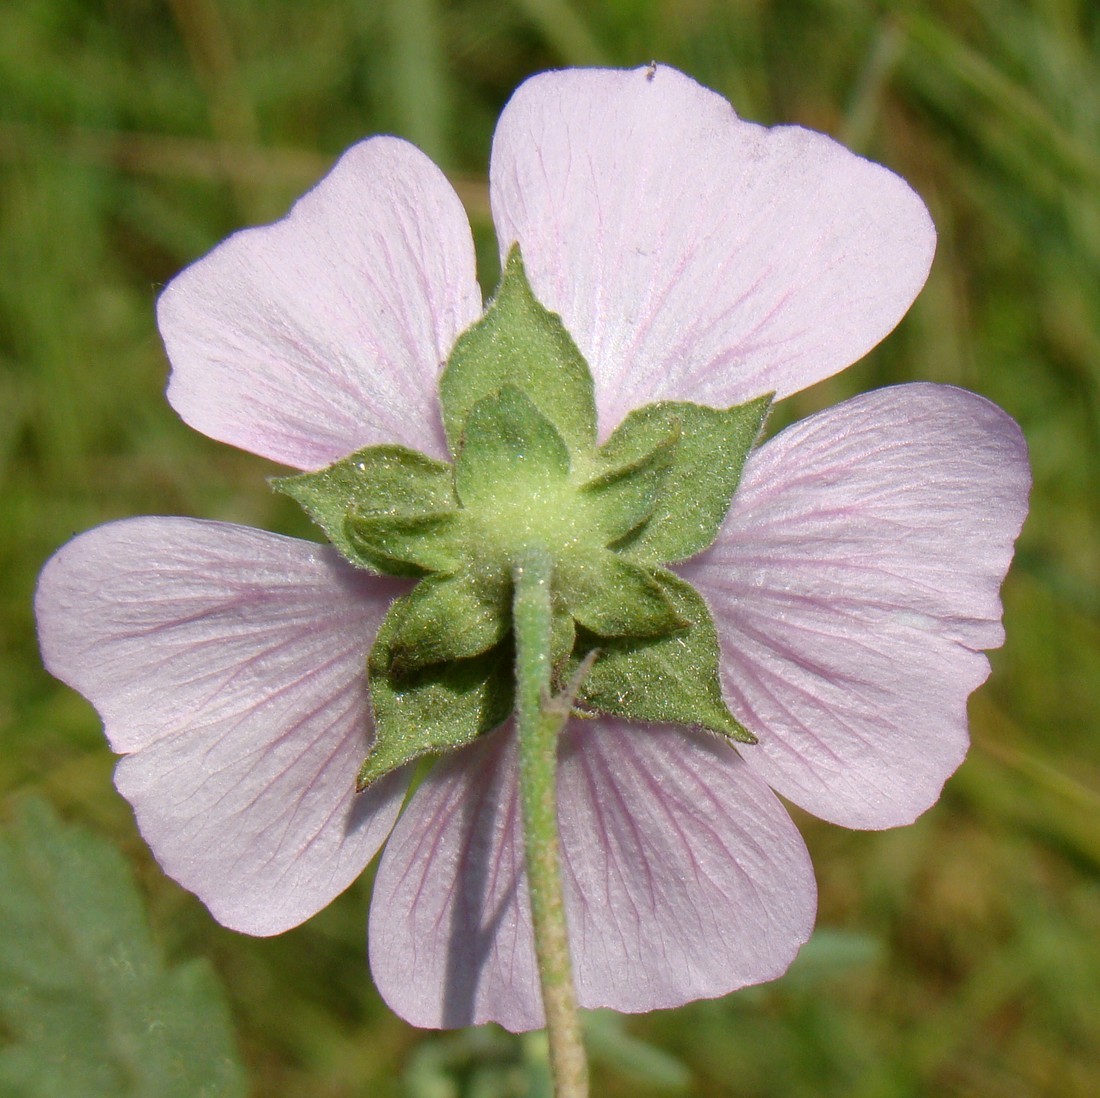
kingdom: Plantae
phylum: Tracheophyta
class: Magnoliopsida
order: Malvales
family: Malvaceae
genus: Althaea
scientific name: Althaea cannabina
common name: Palm-leaf marshmallow
